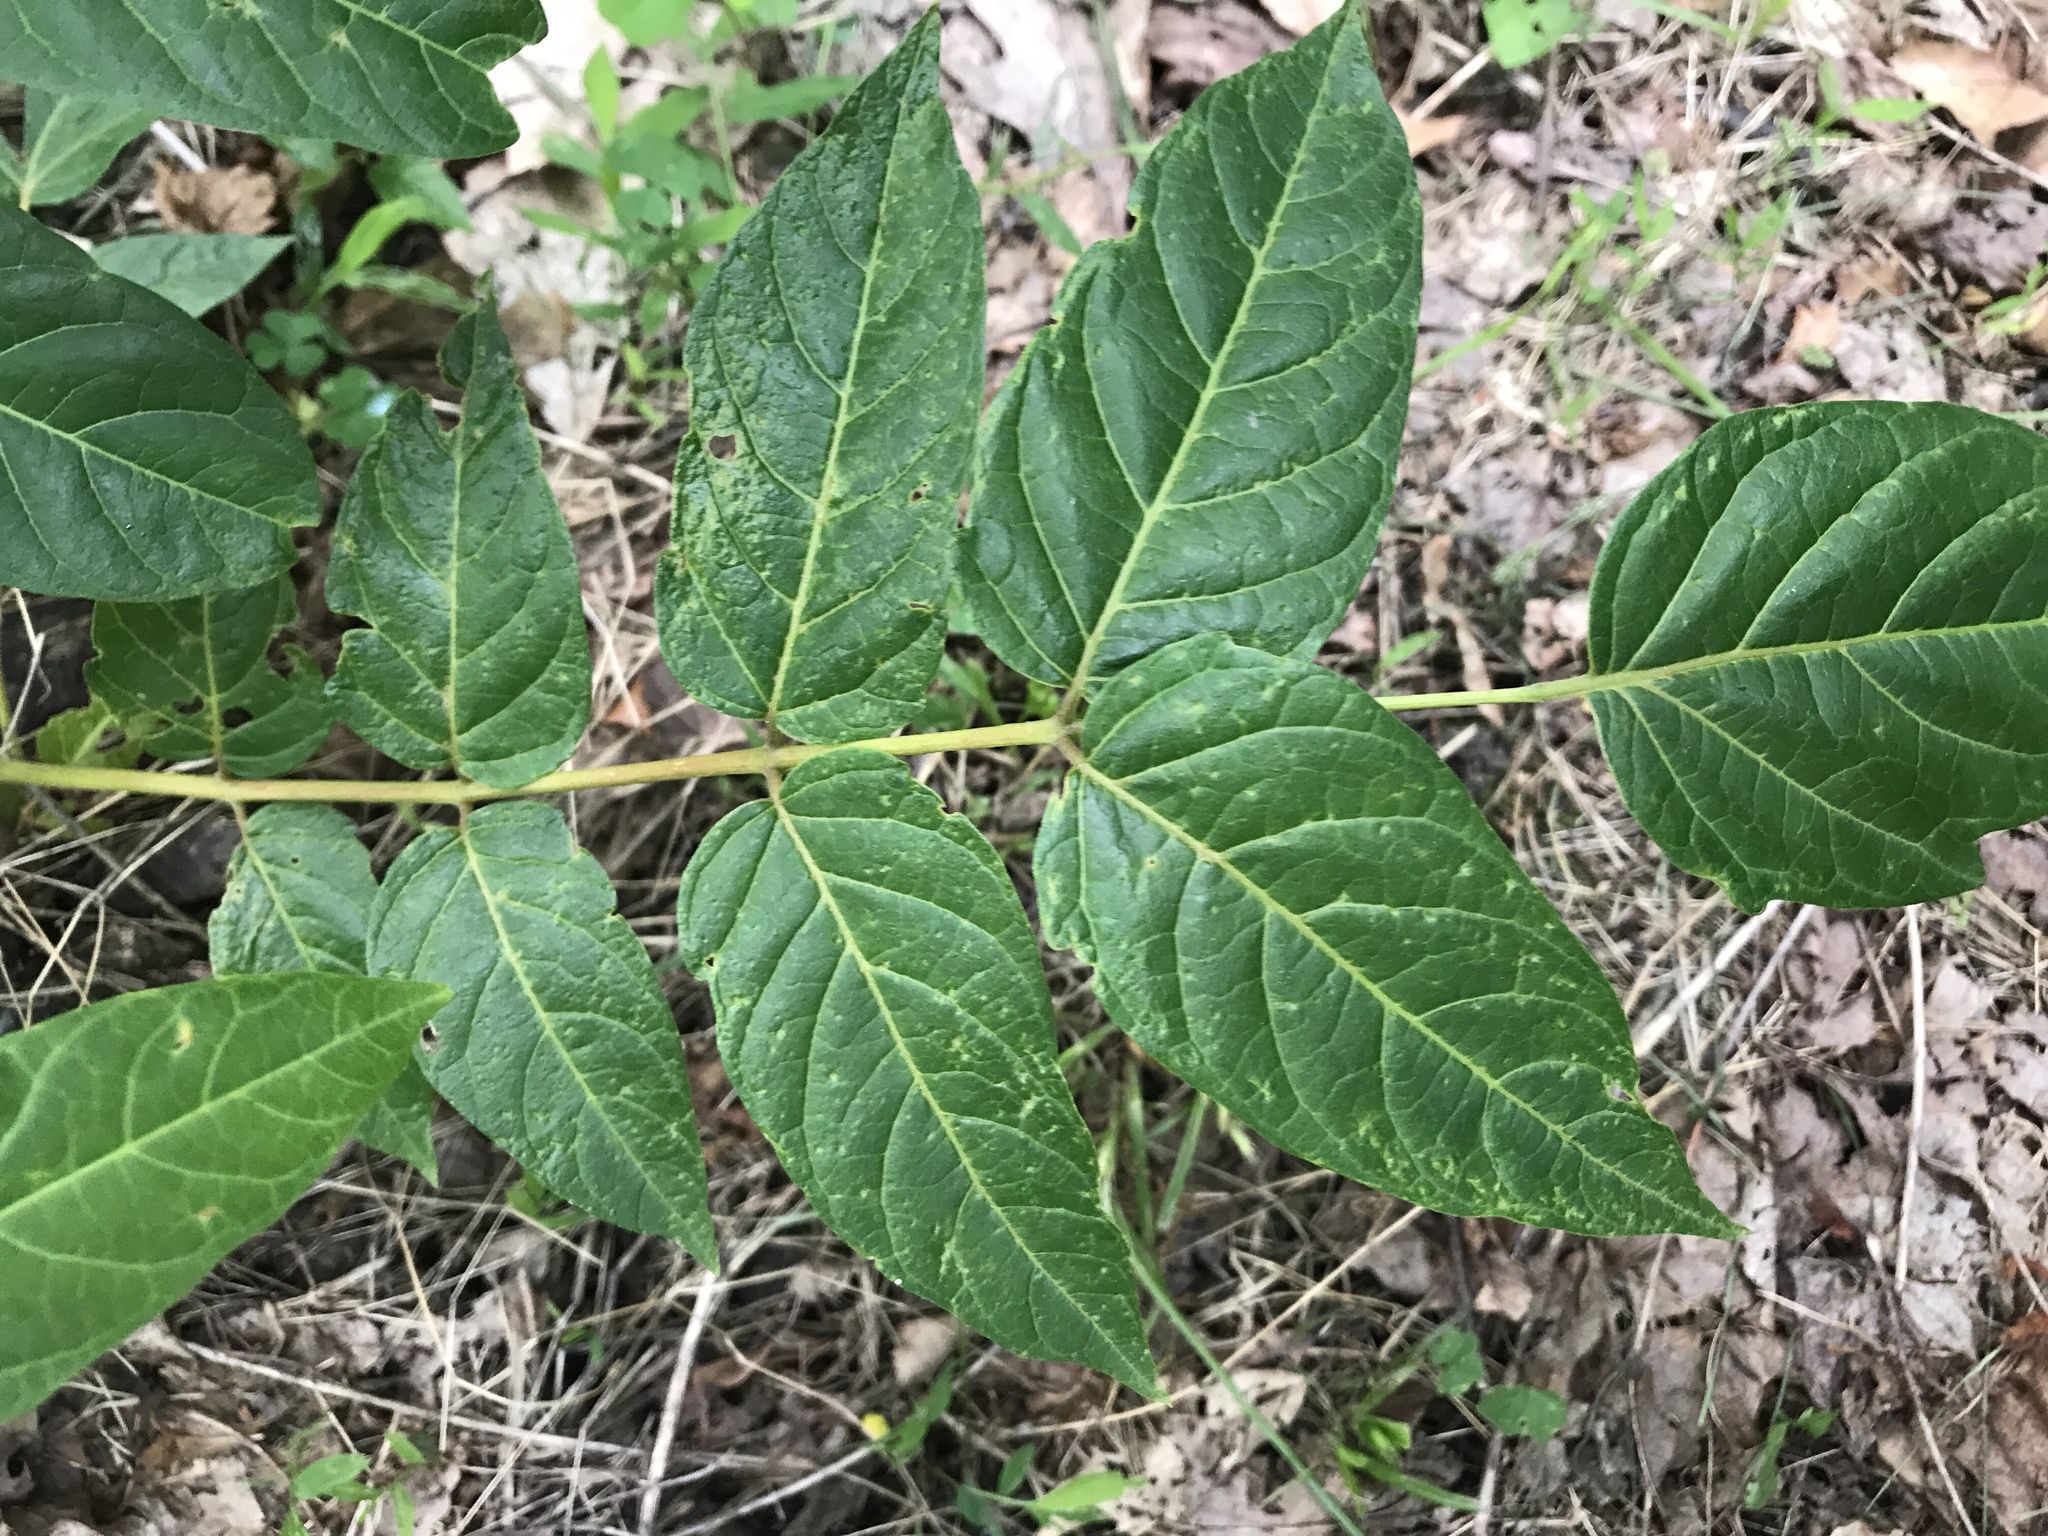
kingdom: Plantae
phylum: Tracheophyta
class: Magnoliopsida
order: Sapindales
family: Simaroubaceae
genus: Ailanthus
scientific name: Ailanthus altissima
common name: Tree-of-heaven
